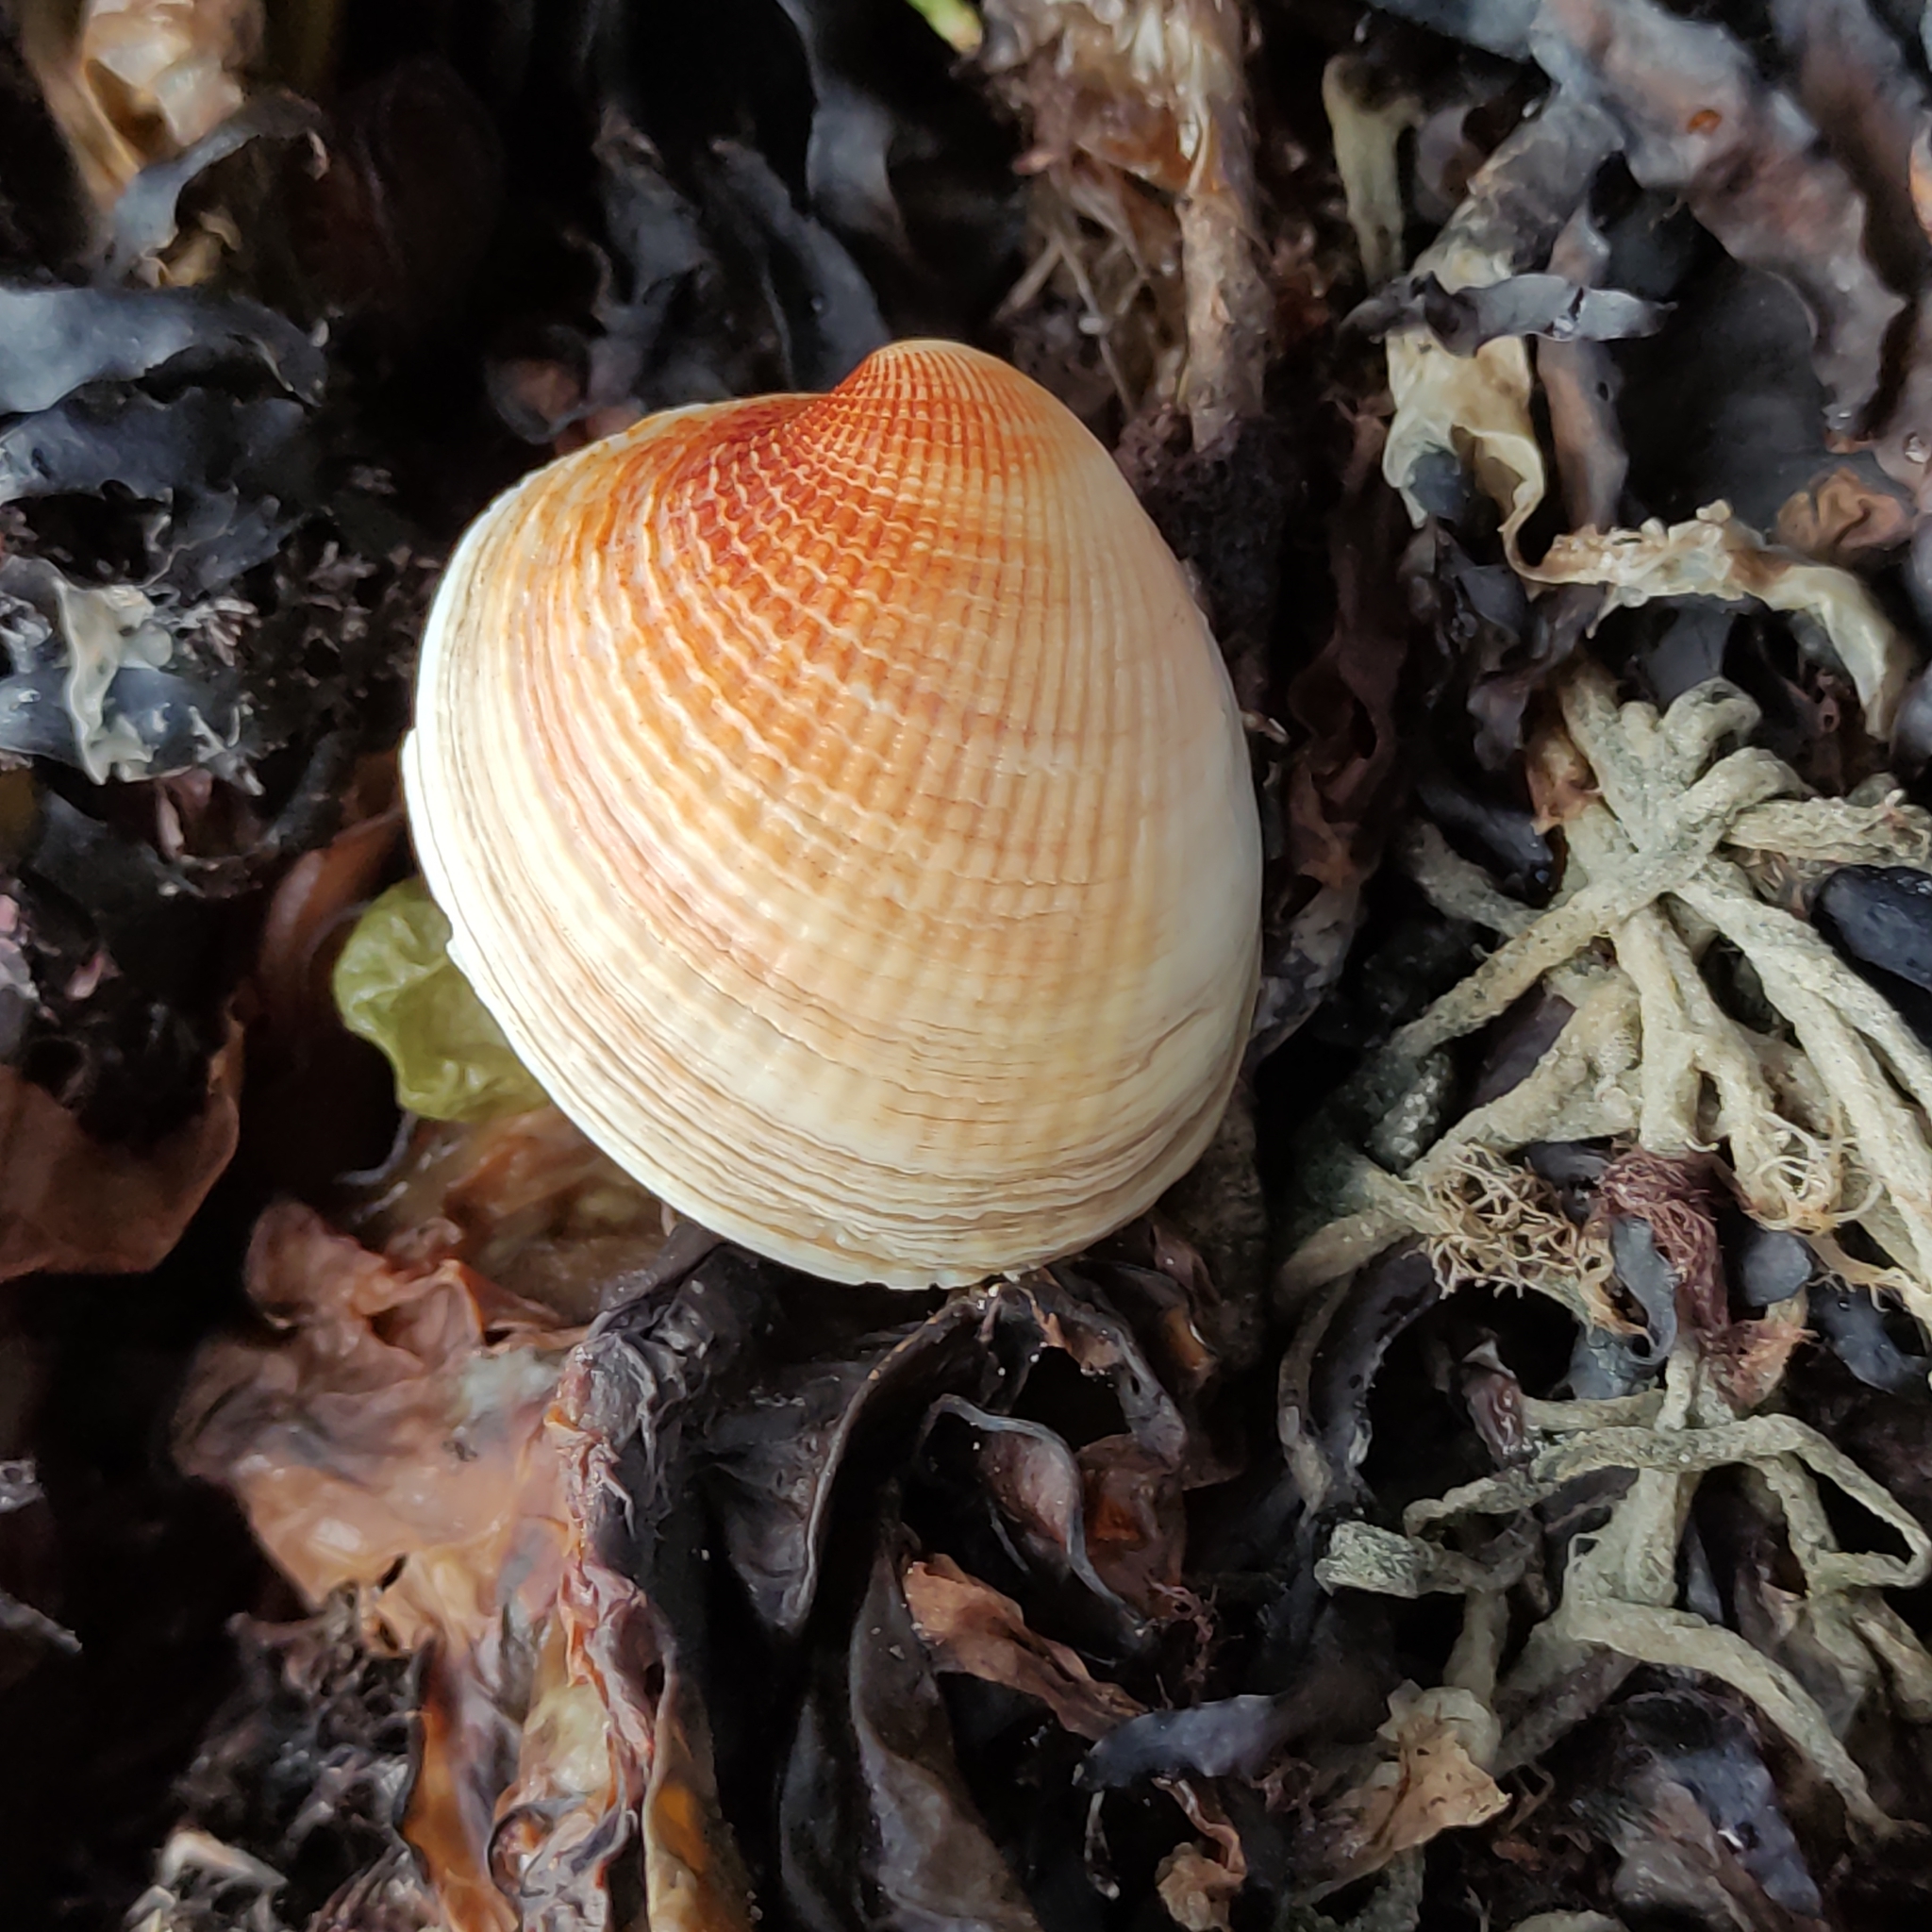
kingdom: Animalia
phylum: Mollusca
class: Bivalvia
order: Venerida
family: Veneridae
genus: Austrovenus
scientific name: Austrovenus stutchburyi
